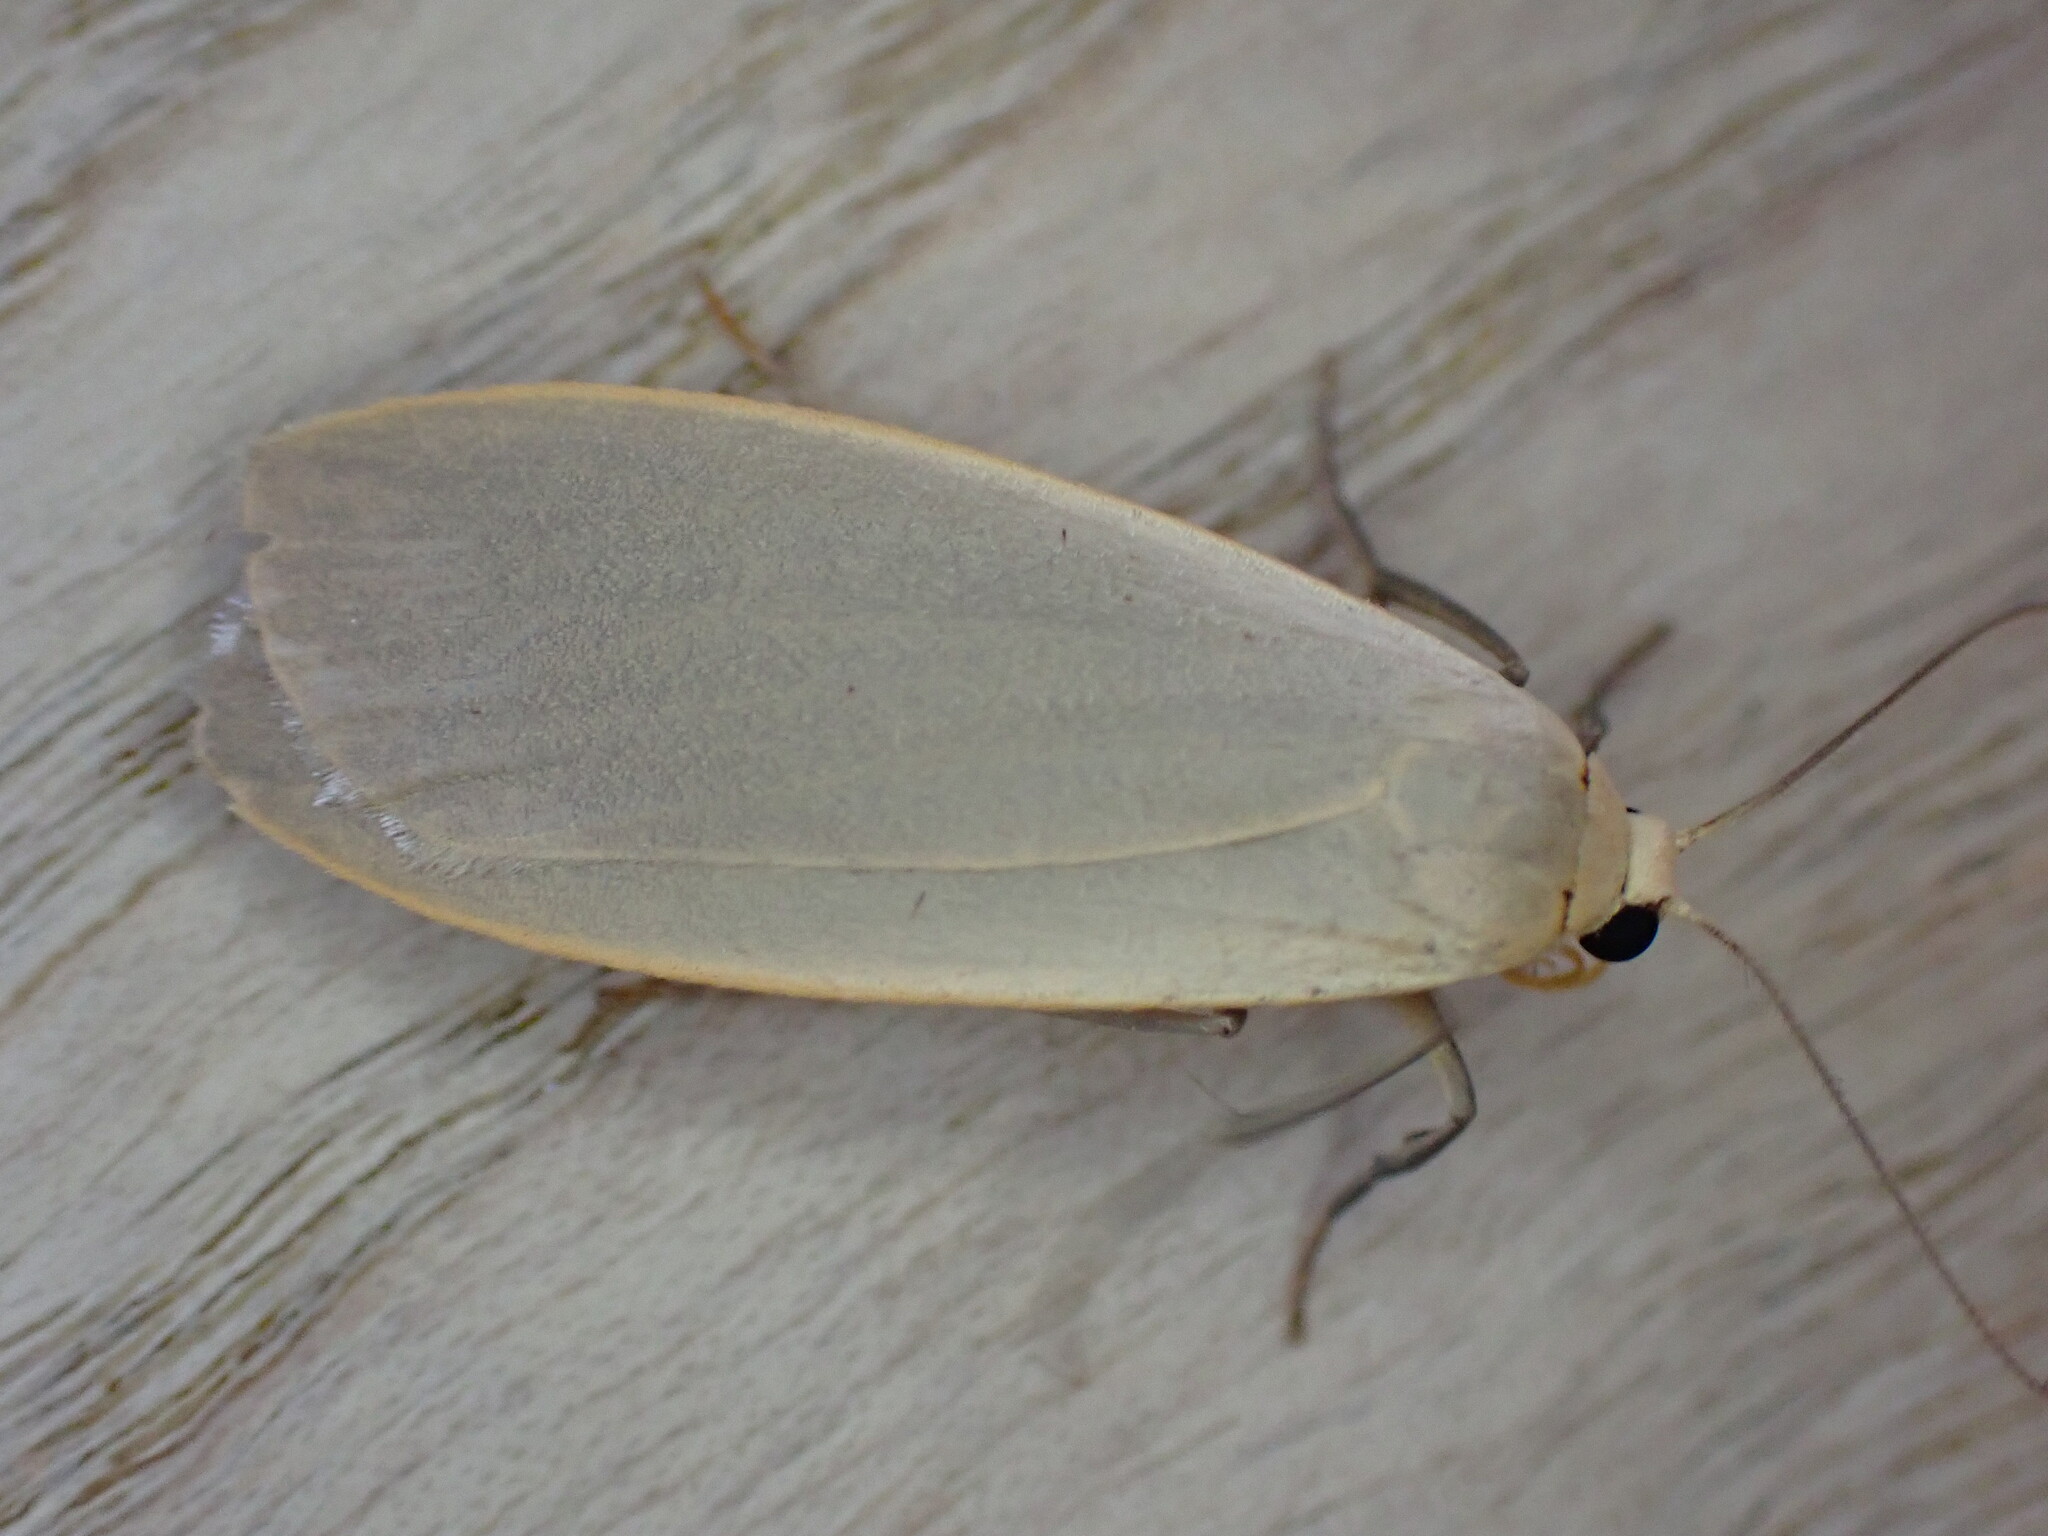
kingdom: Animalia
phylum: Arthropoda
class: Insecta
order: Lepidoptera
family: Erebidae
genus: Collita
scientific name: Collita griseola
